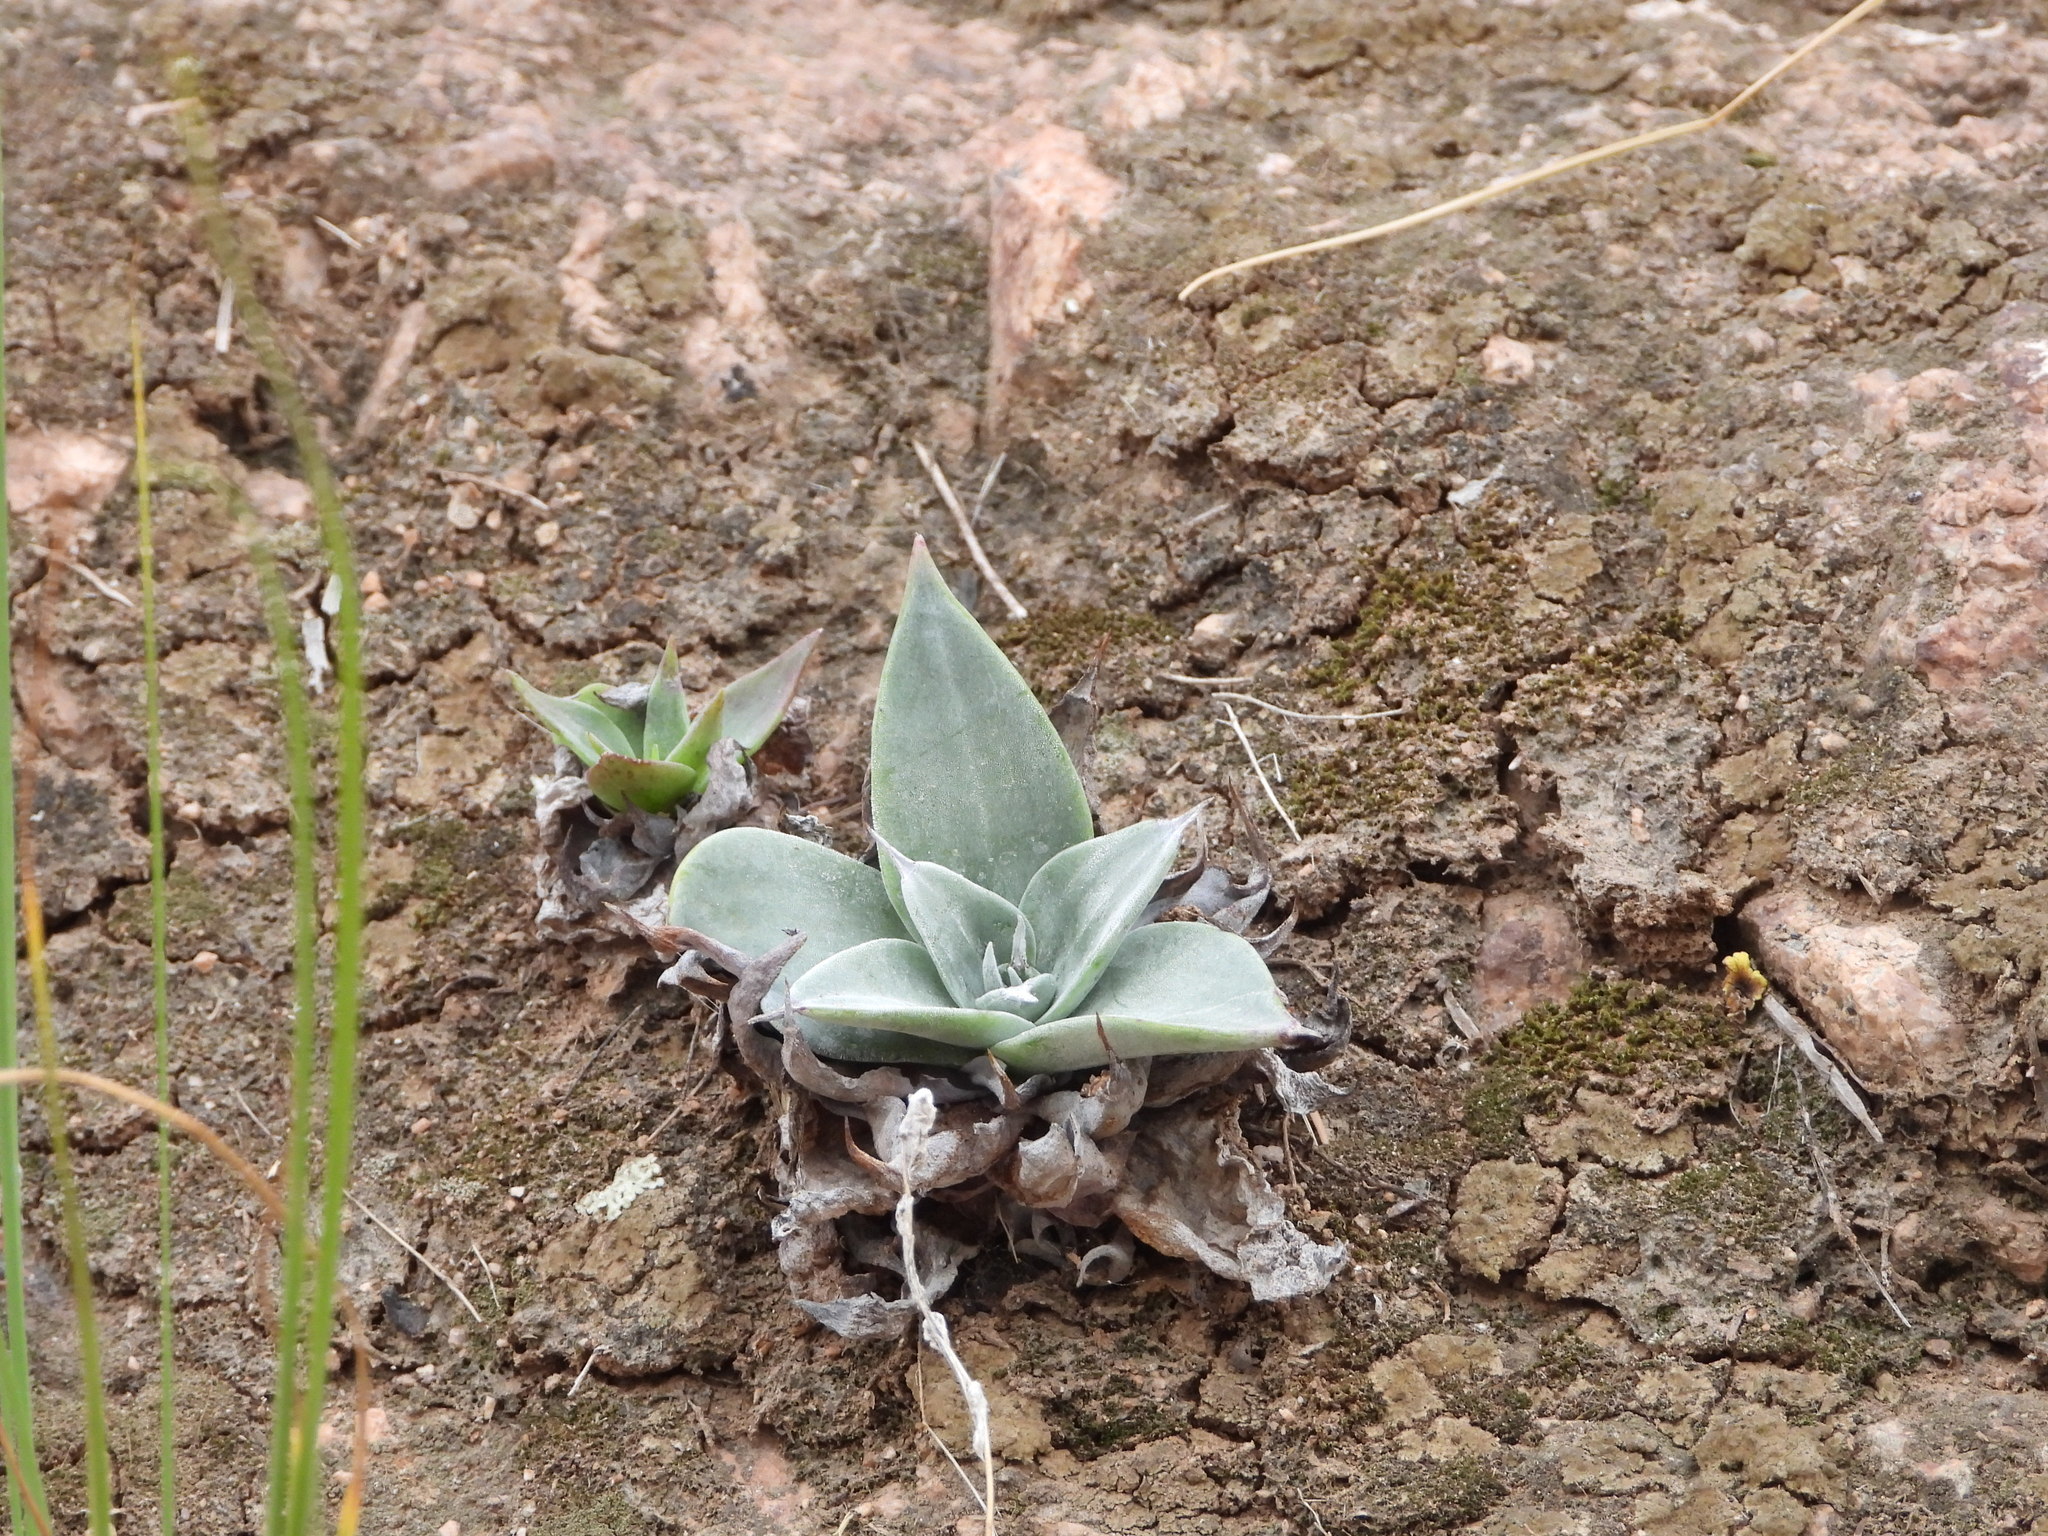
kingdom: Plantae
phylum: Tracheophyta
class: Magnoliopsida
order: Saxifragales
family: Crassulaceae
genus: Dudleya
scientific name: Dudleya arizonica
